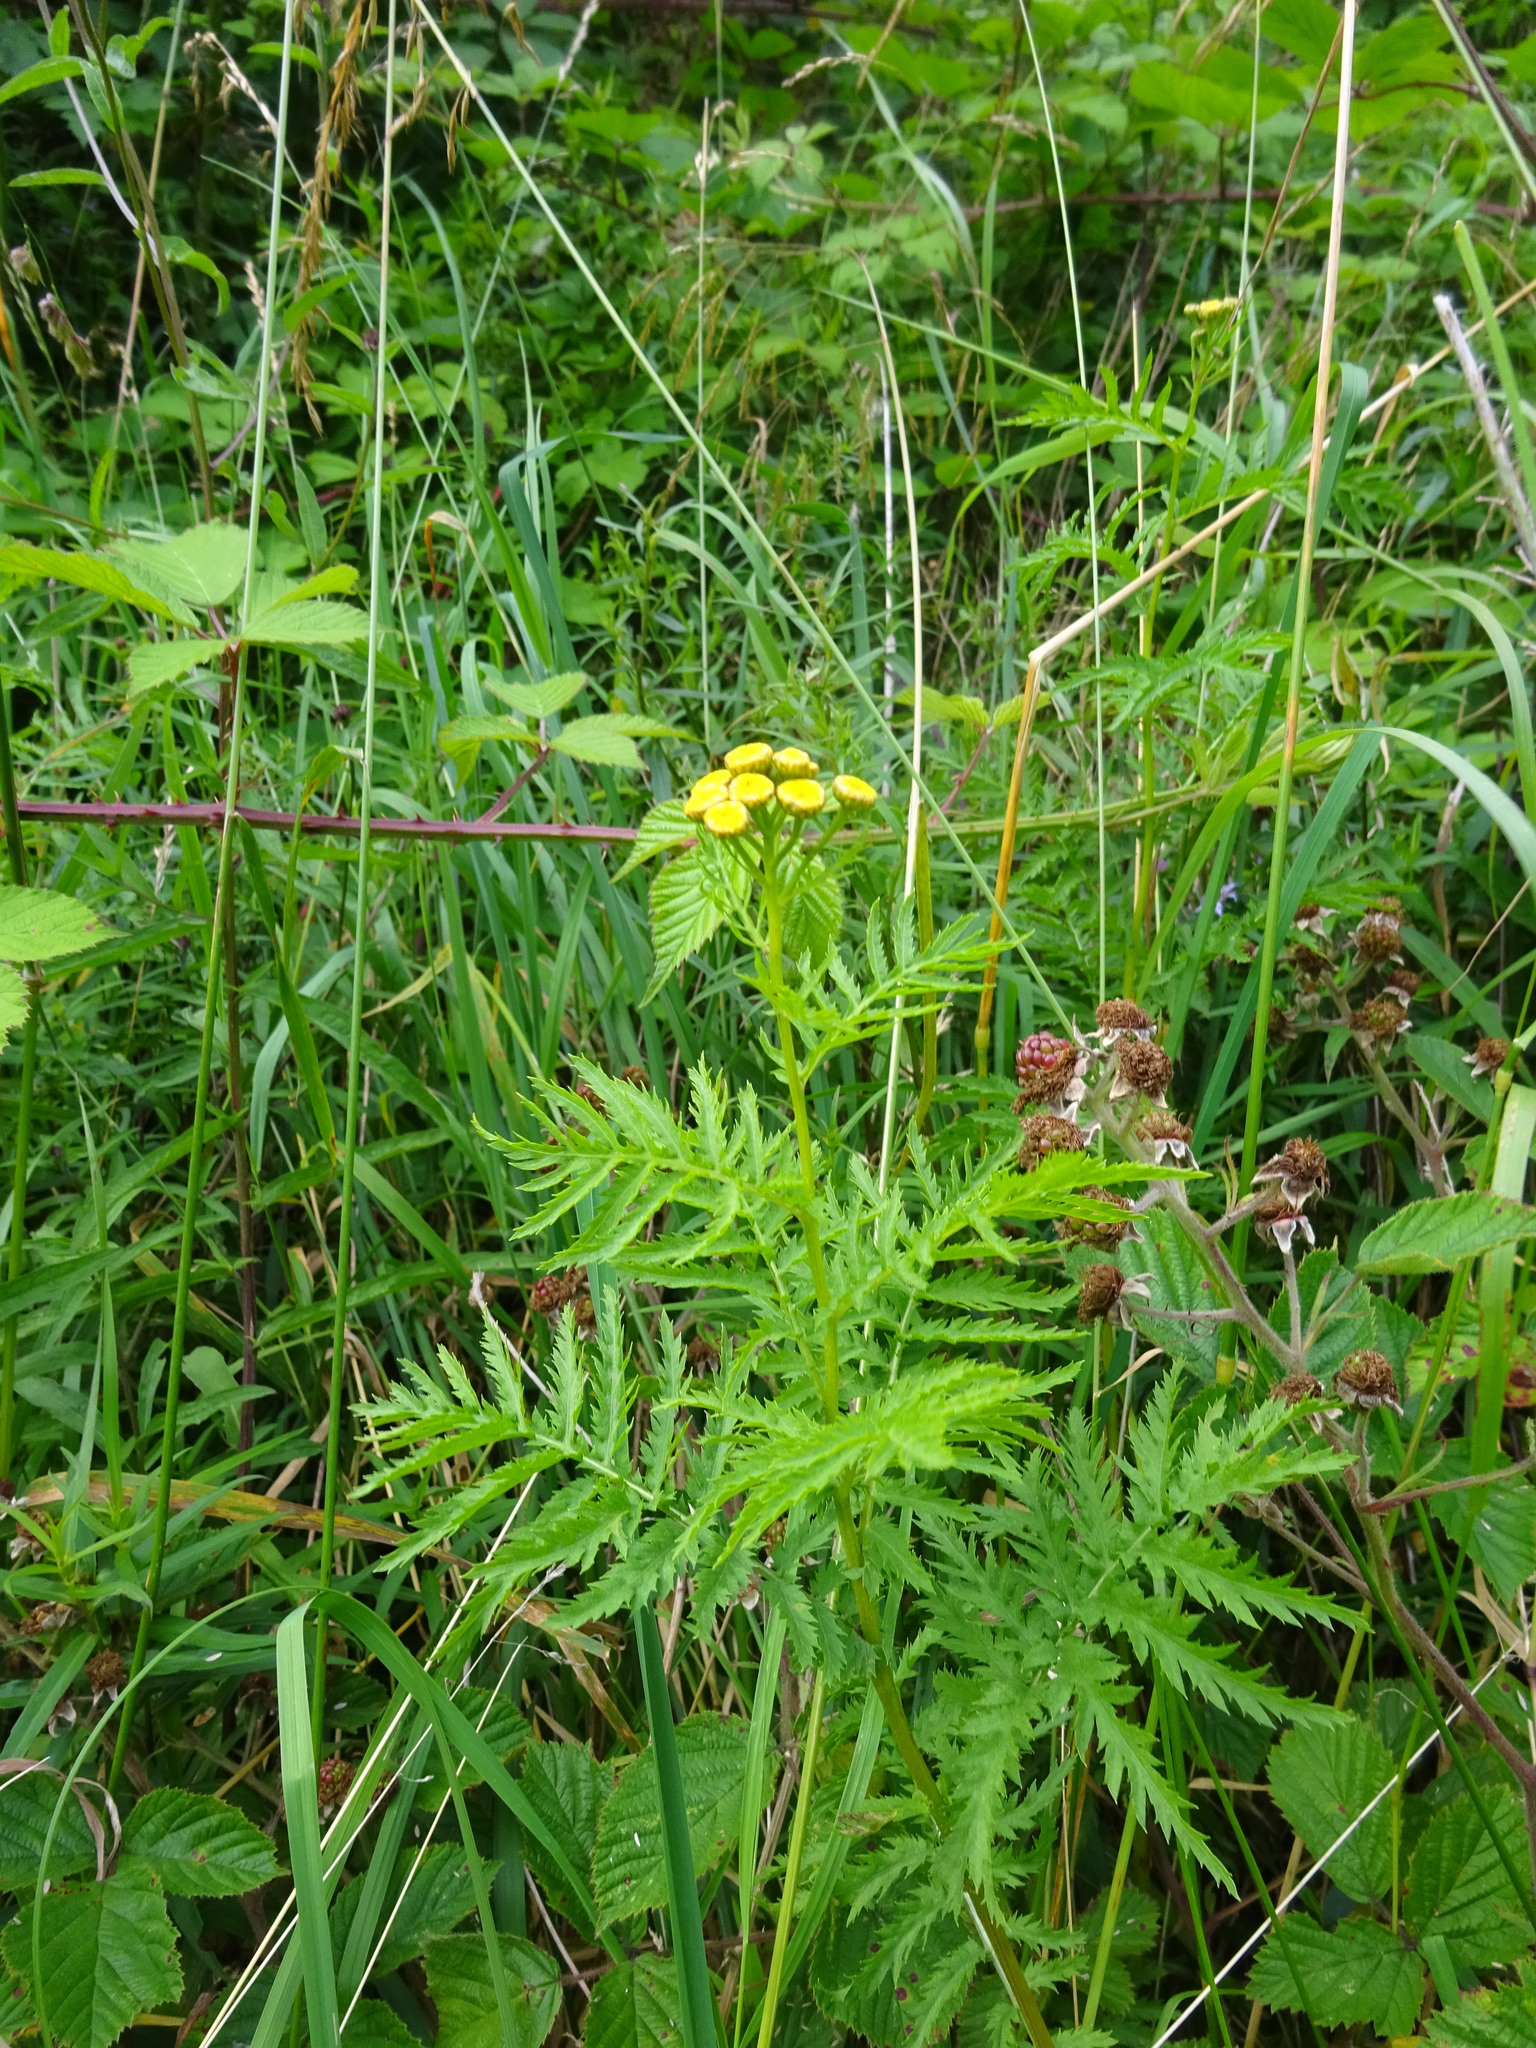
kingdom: Plantae
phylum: Tracheophyta
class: Magnoliopsida
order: Asterales
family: Asteraceae
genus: Tanacetum
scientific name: Tanacetum vulgare
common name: Common tansy
